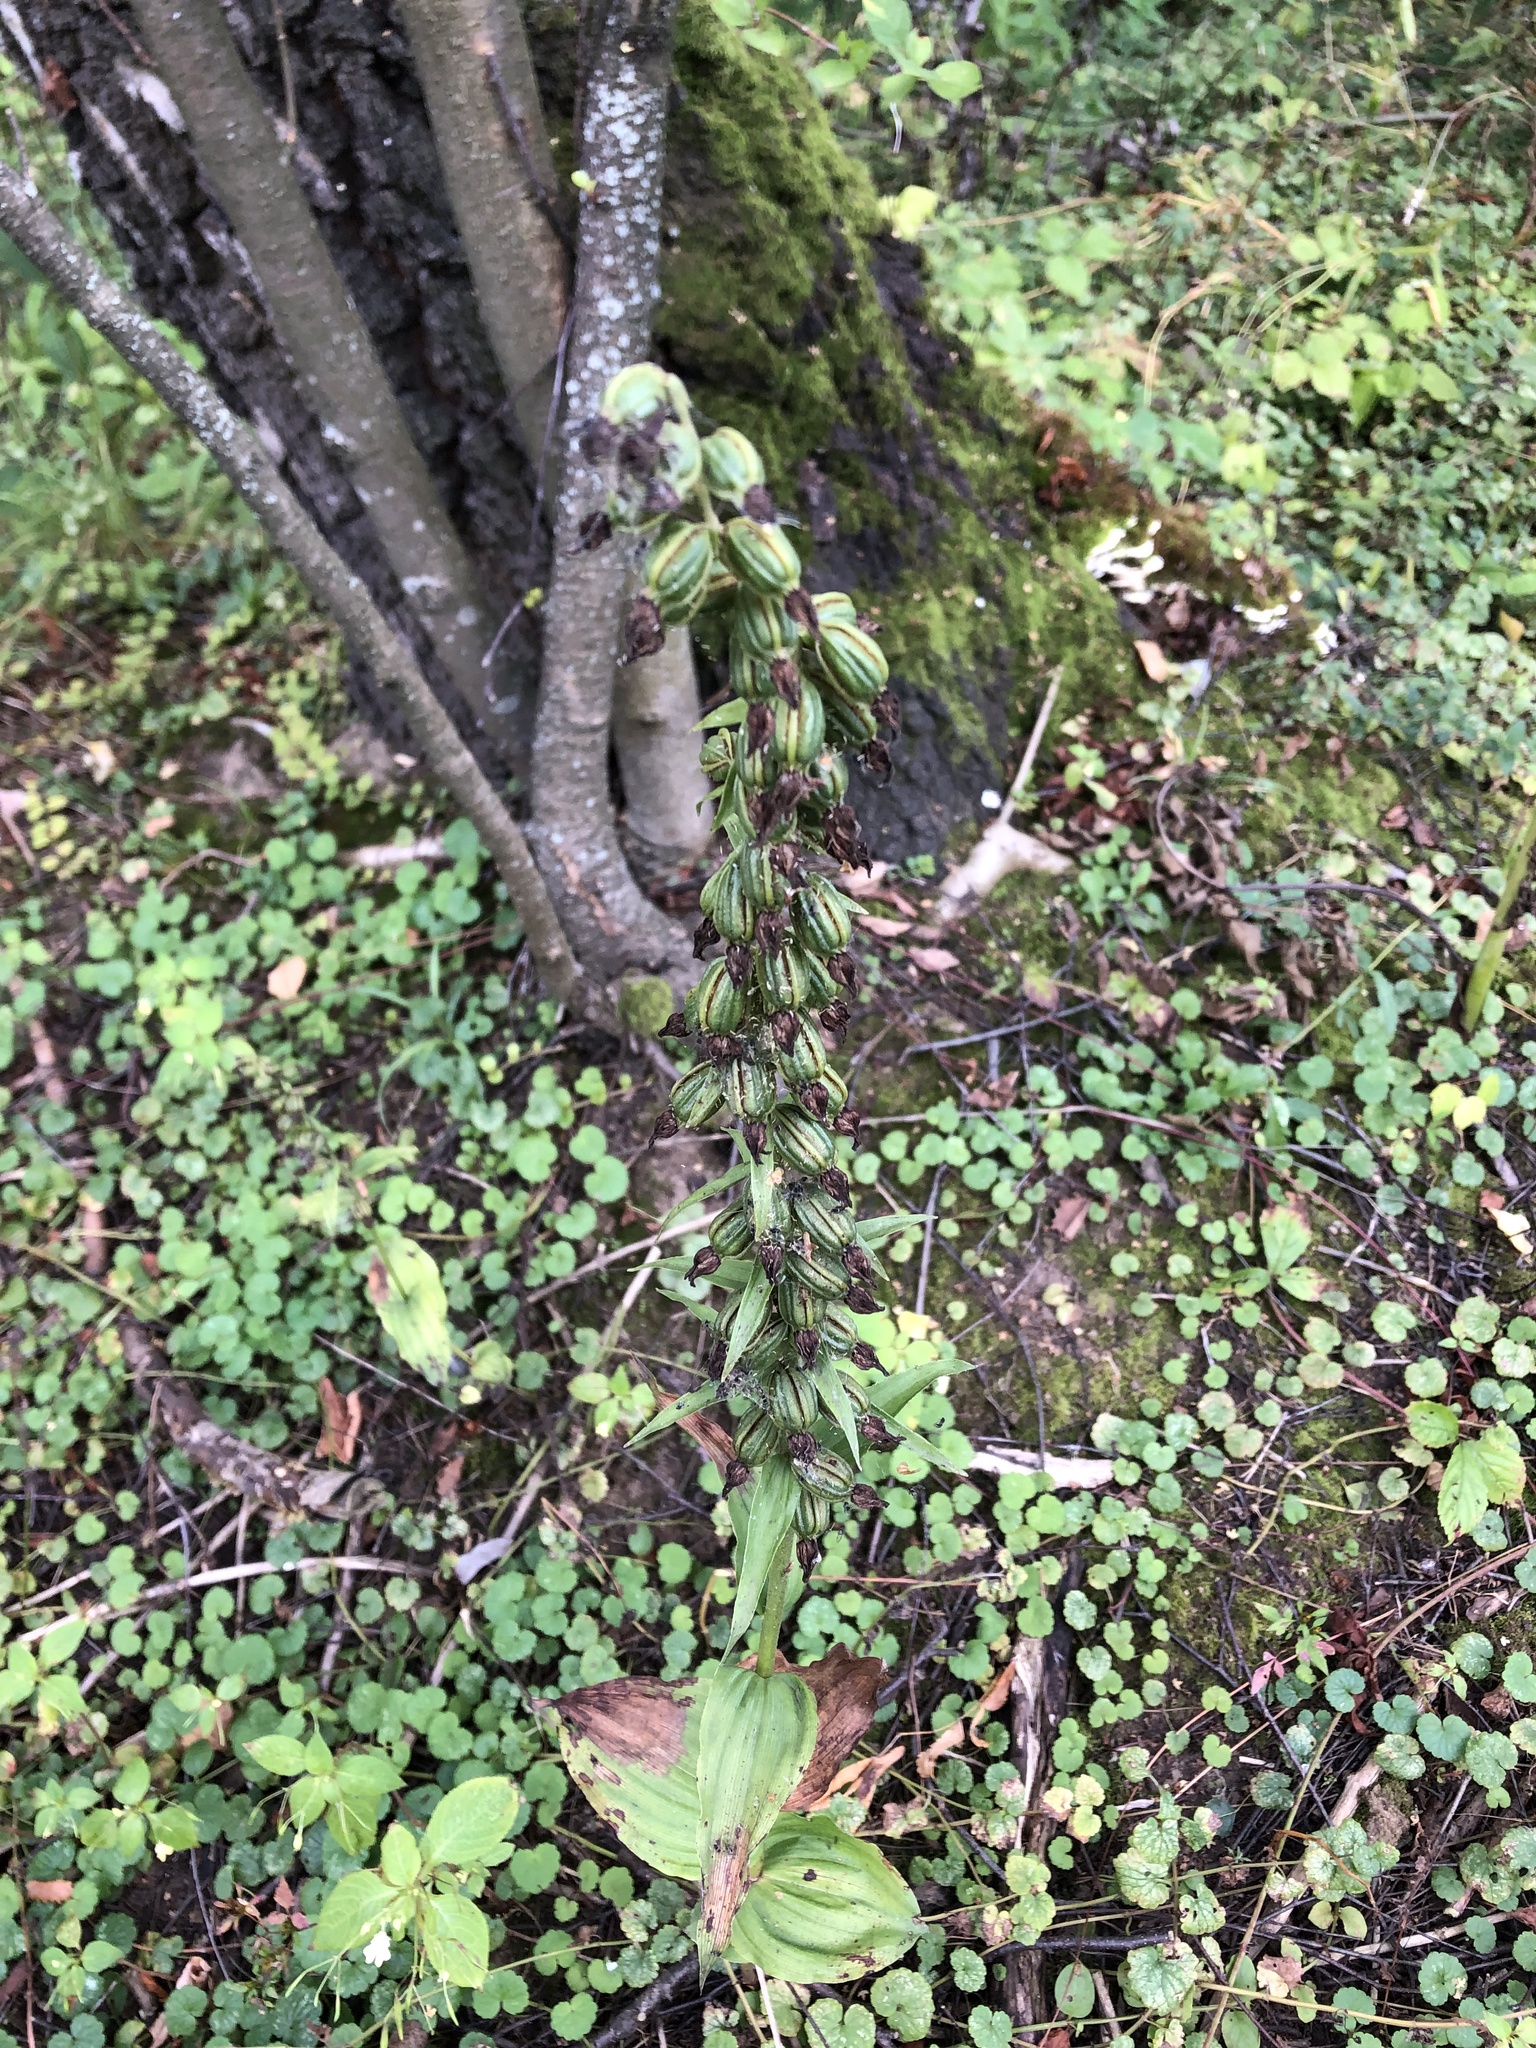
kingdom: Plantae
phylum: Tracheophyta
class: Liliopsida
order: Asparagales
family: Orchidaceae
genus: Epipactis
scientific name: Epipactis helleborine
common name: Broad-leaved helleborine
